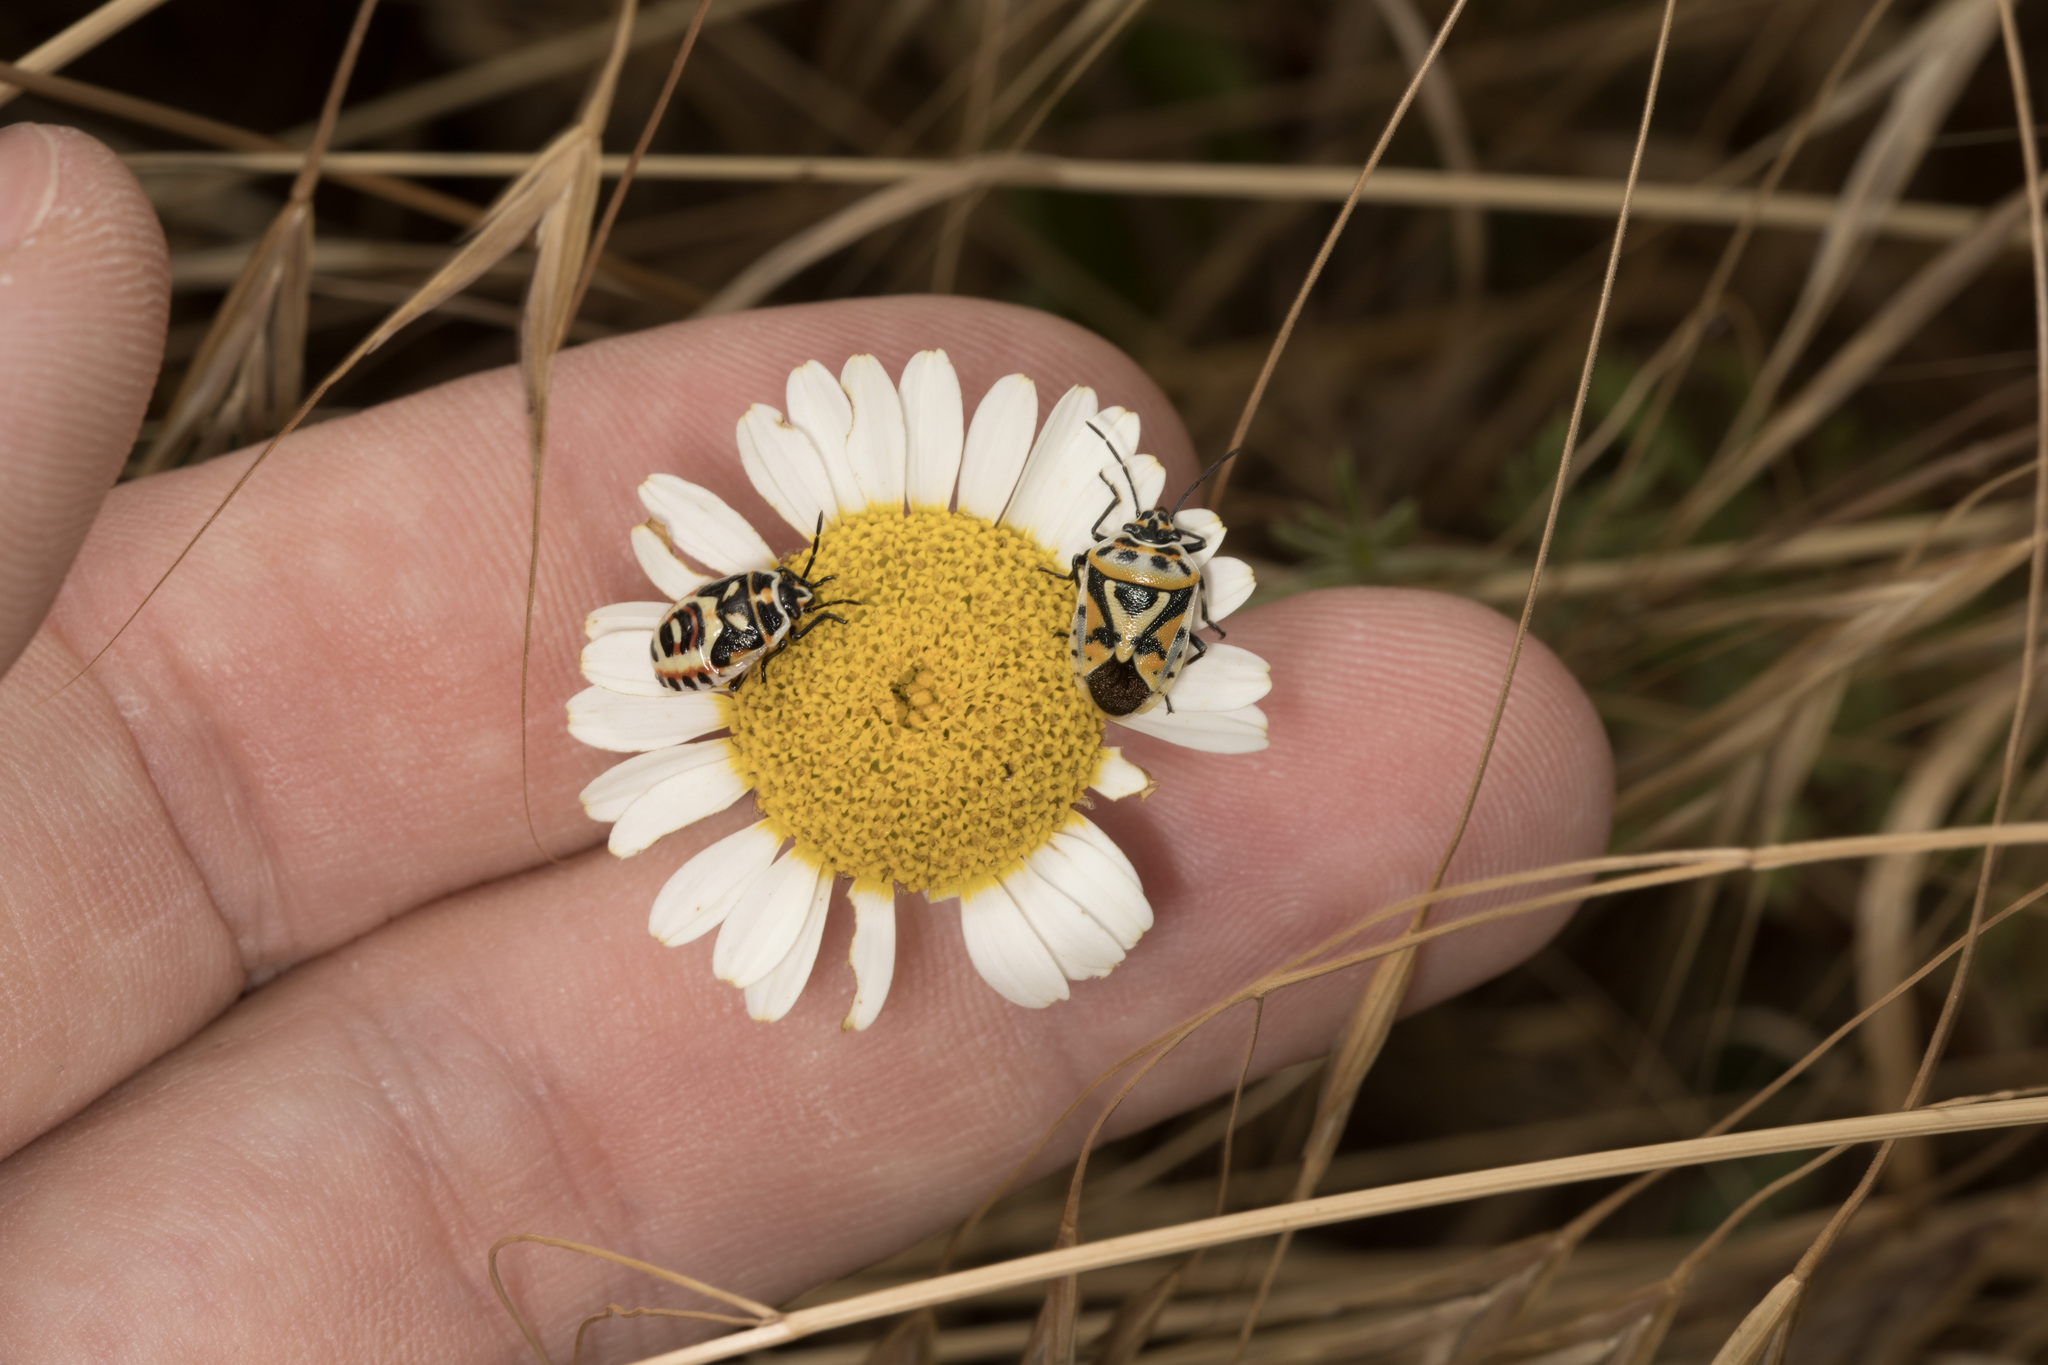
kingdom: Animalia
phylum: Arthropoda
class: Insecta
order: Hemiptera
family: Pentatomidae
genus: Eurydema
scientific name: Eurydema ornata
